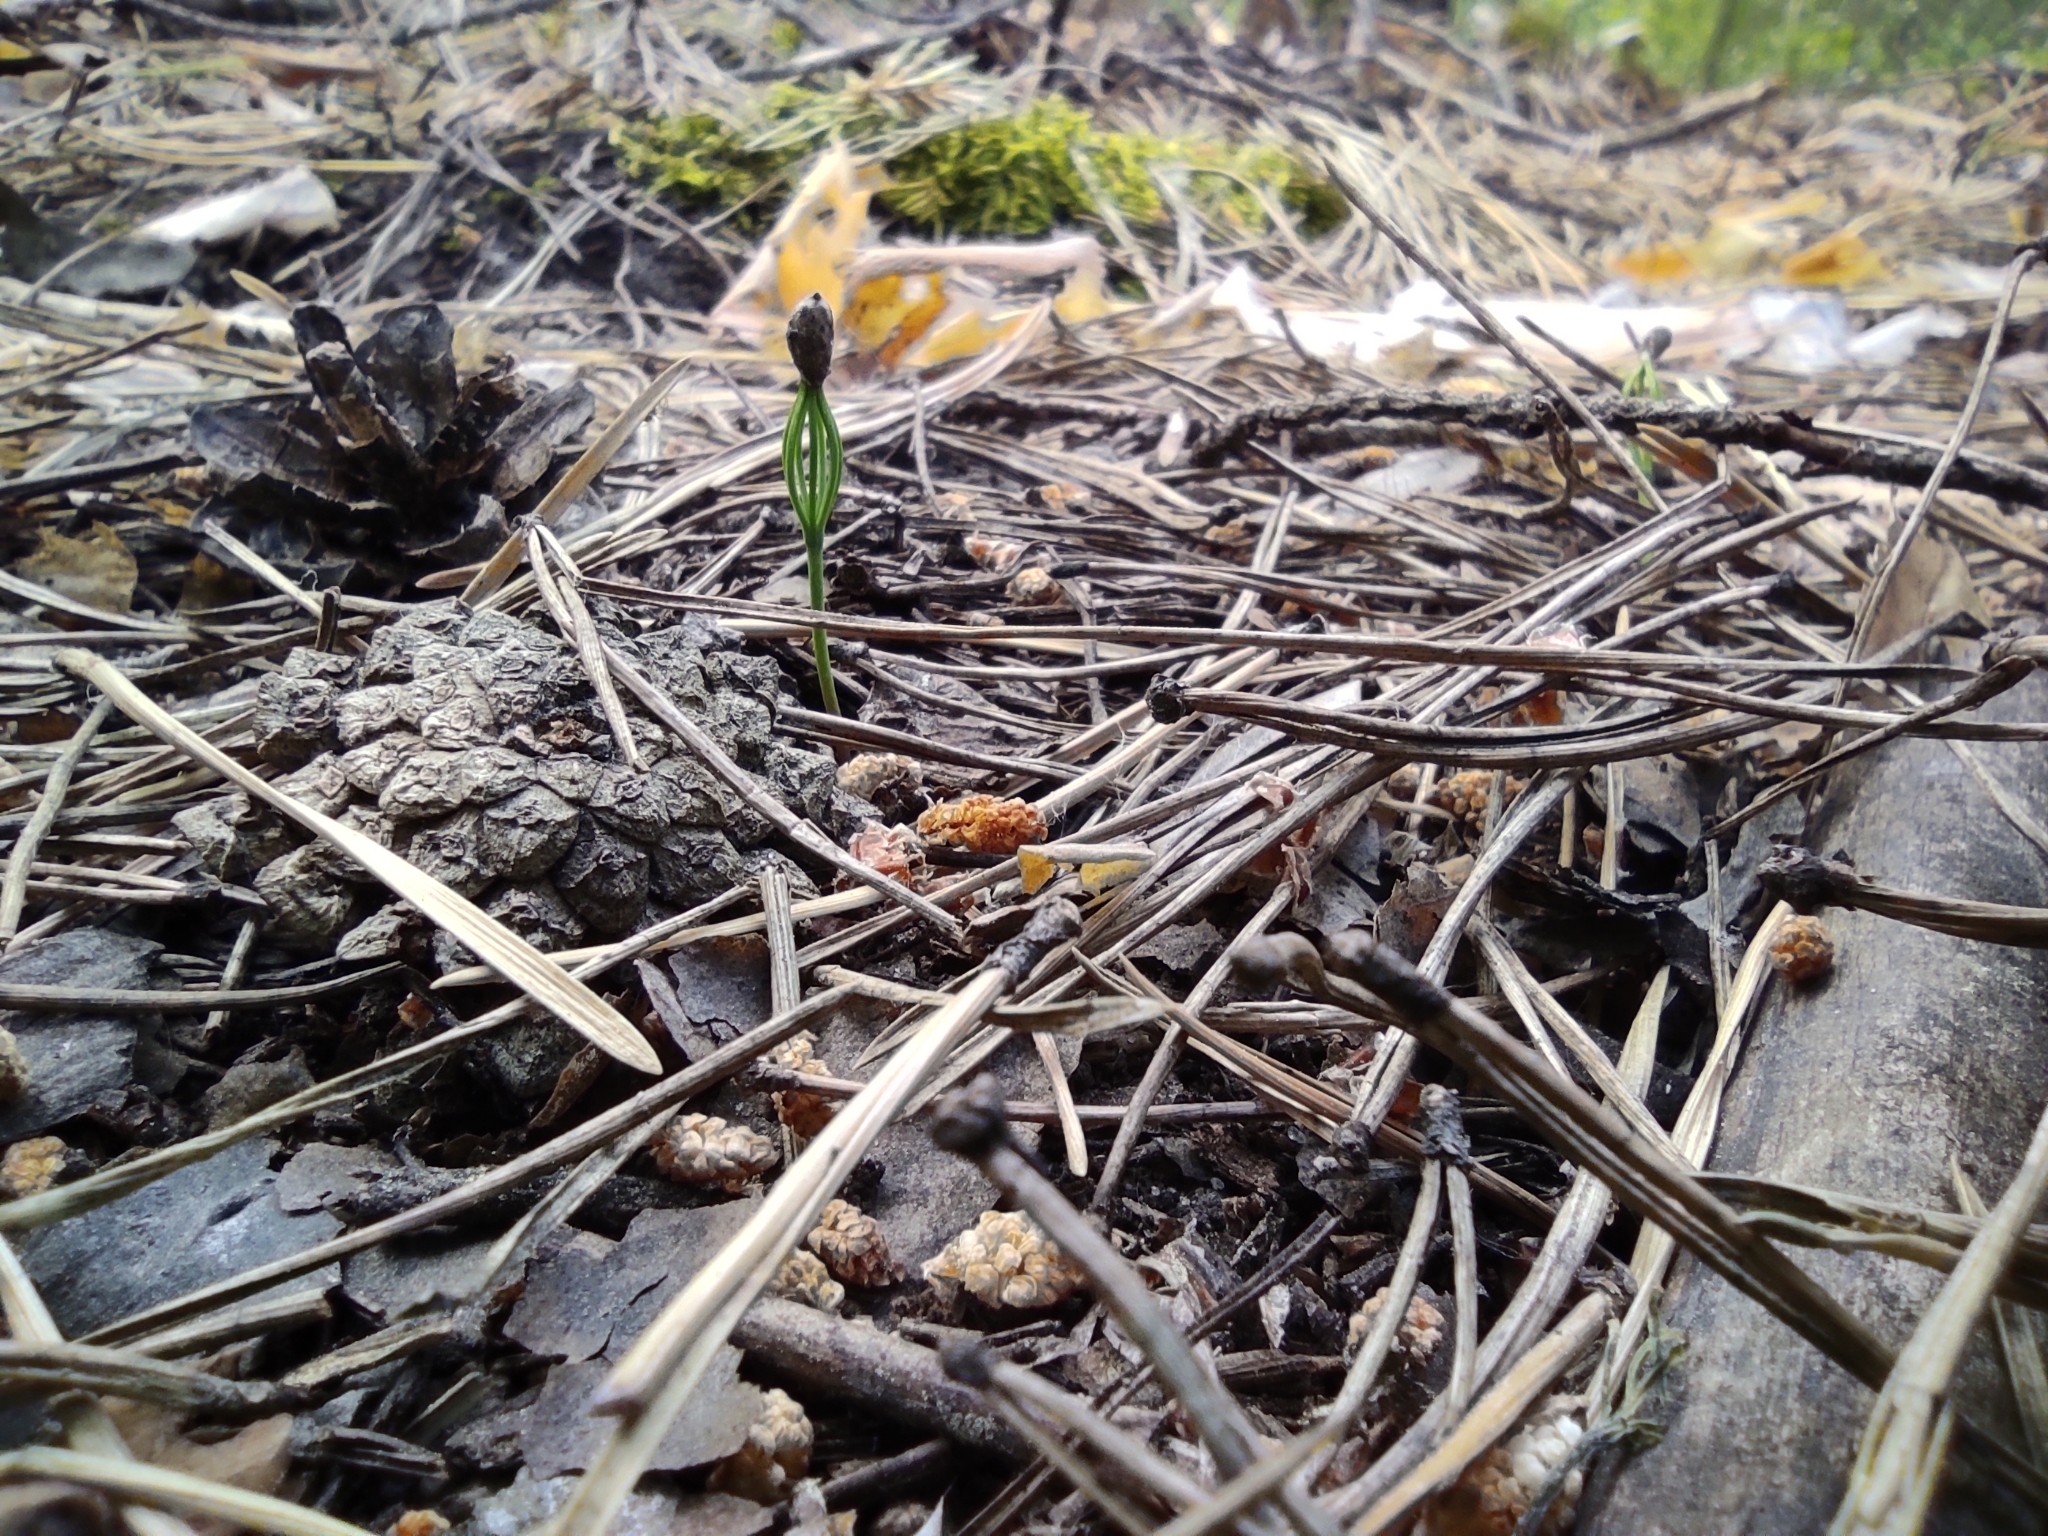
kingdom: Plantae
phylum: Tracheophyta
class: Pinopsida
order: Pinales
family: Pinaceae
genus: Pinus
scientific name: Pinus sylvestris
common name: Scots pine
